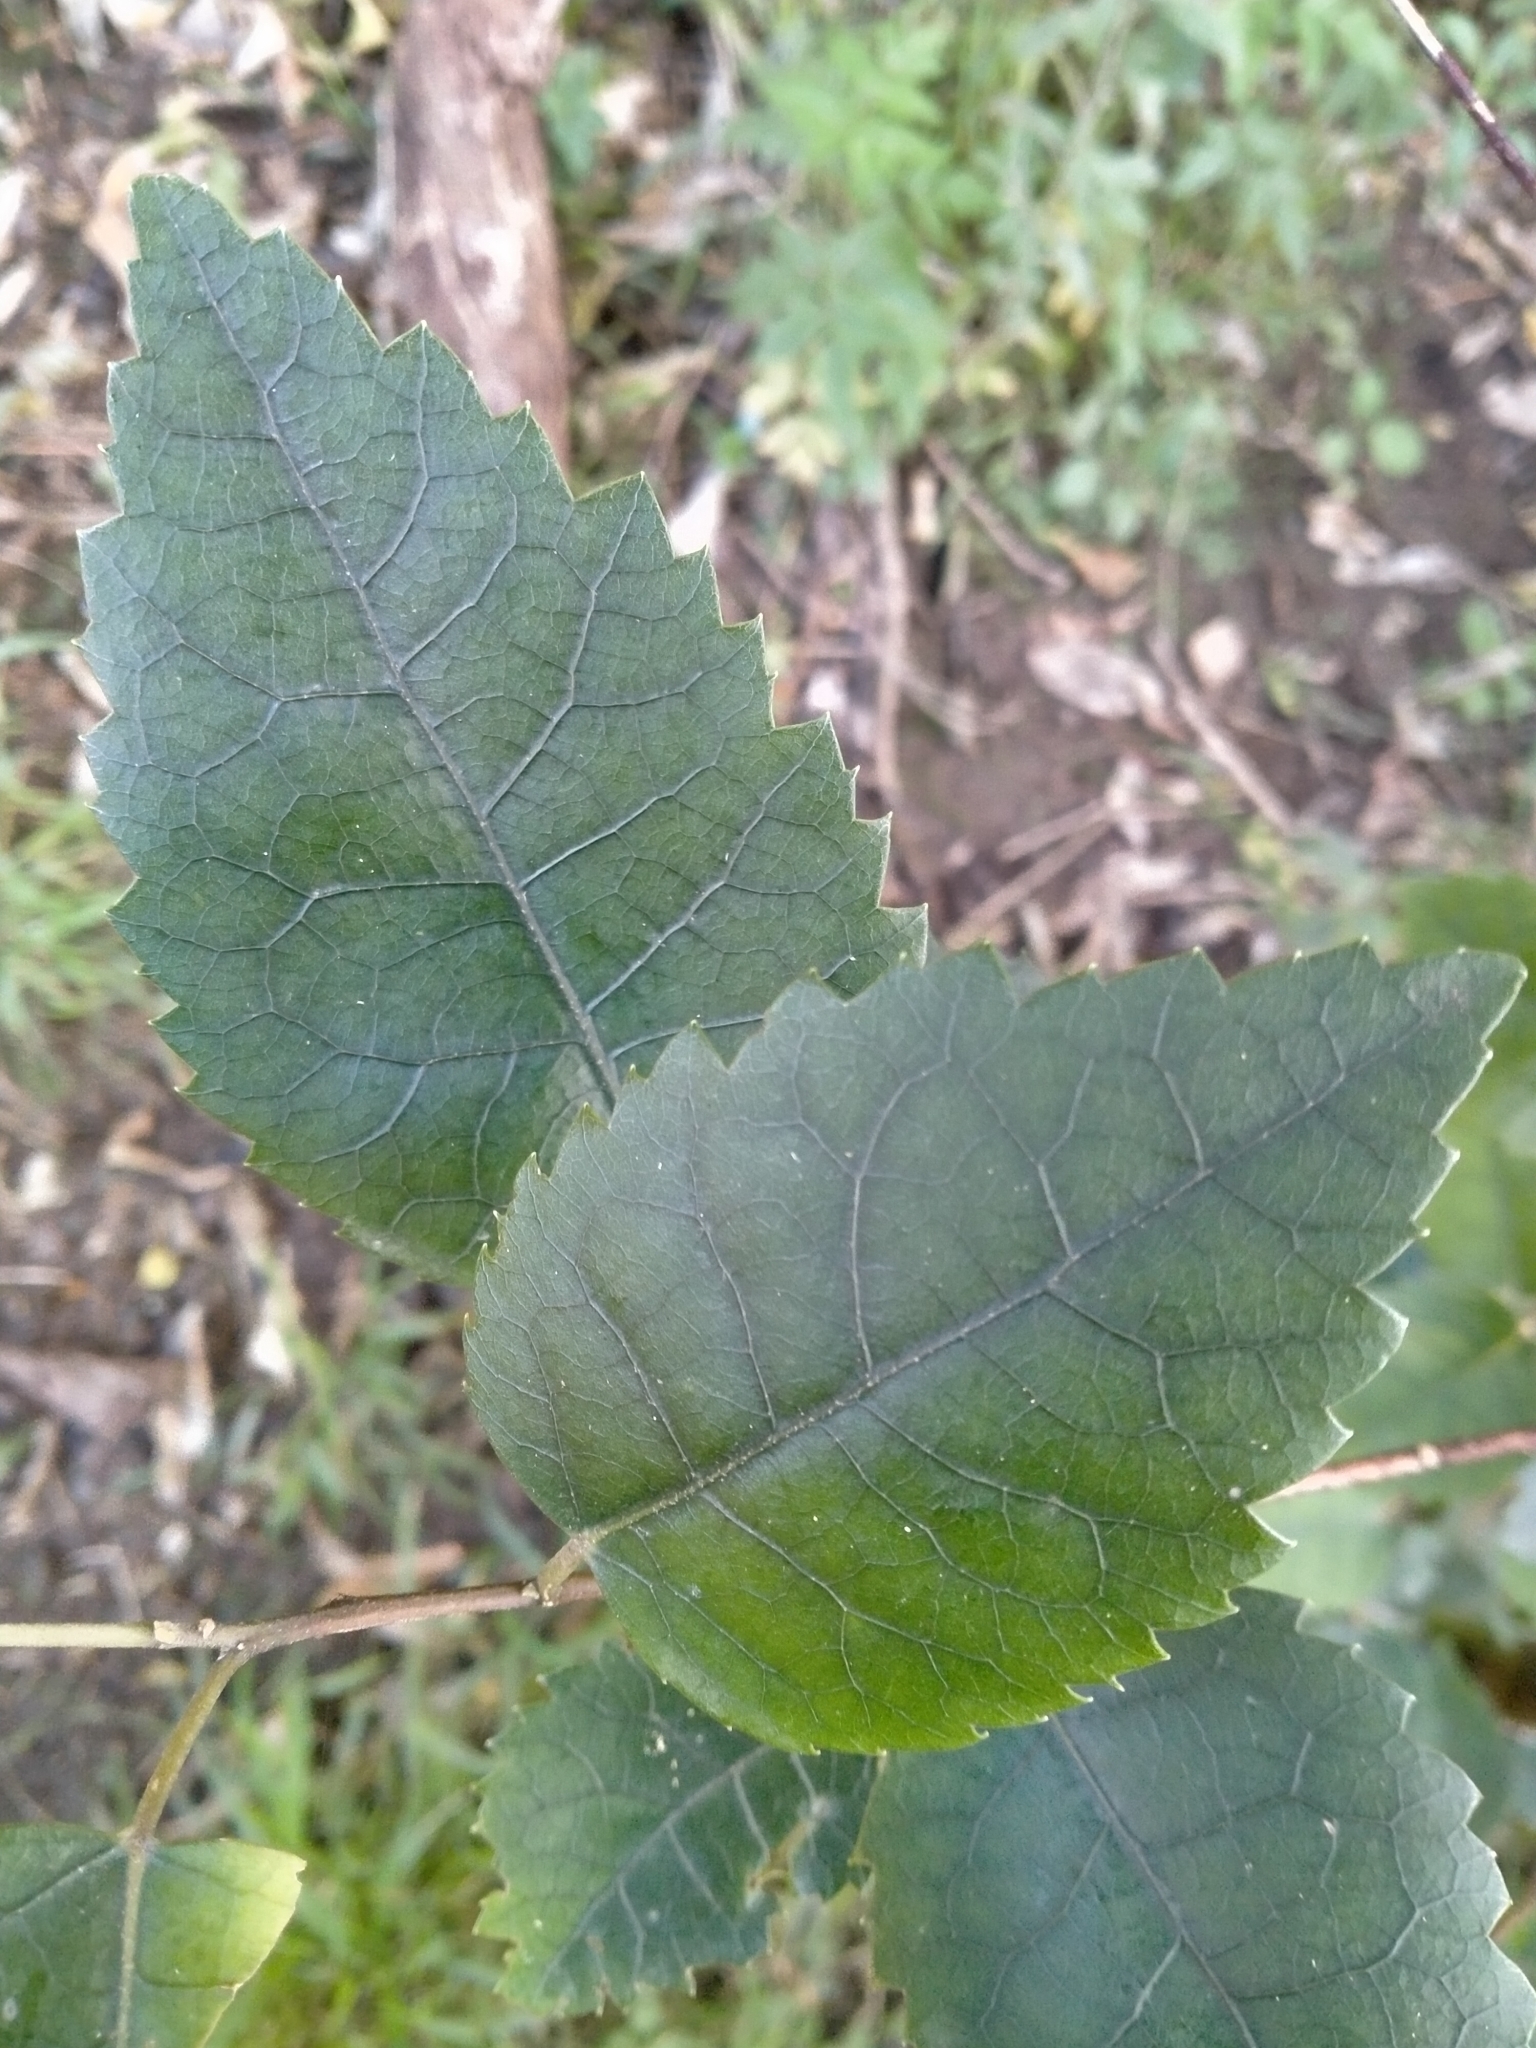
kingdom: Plantae
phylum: Tracheophyta
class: Magnoliopsida
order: Malvales
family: Malvaceae
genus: Hoheria
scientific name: Hoheria populnea
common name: Lacebark
